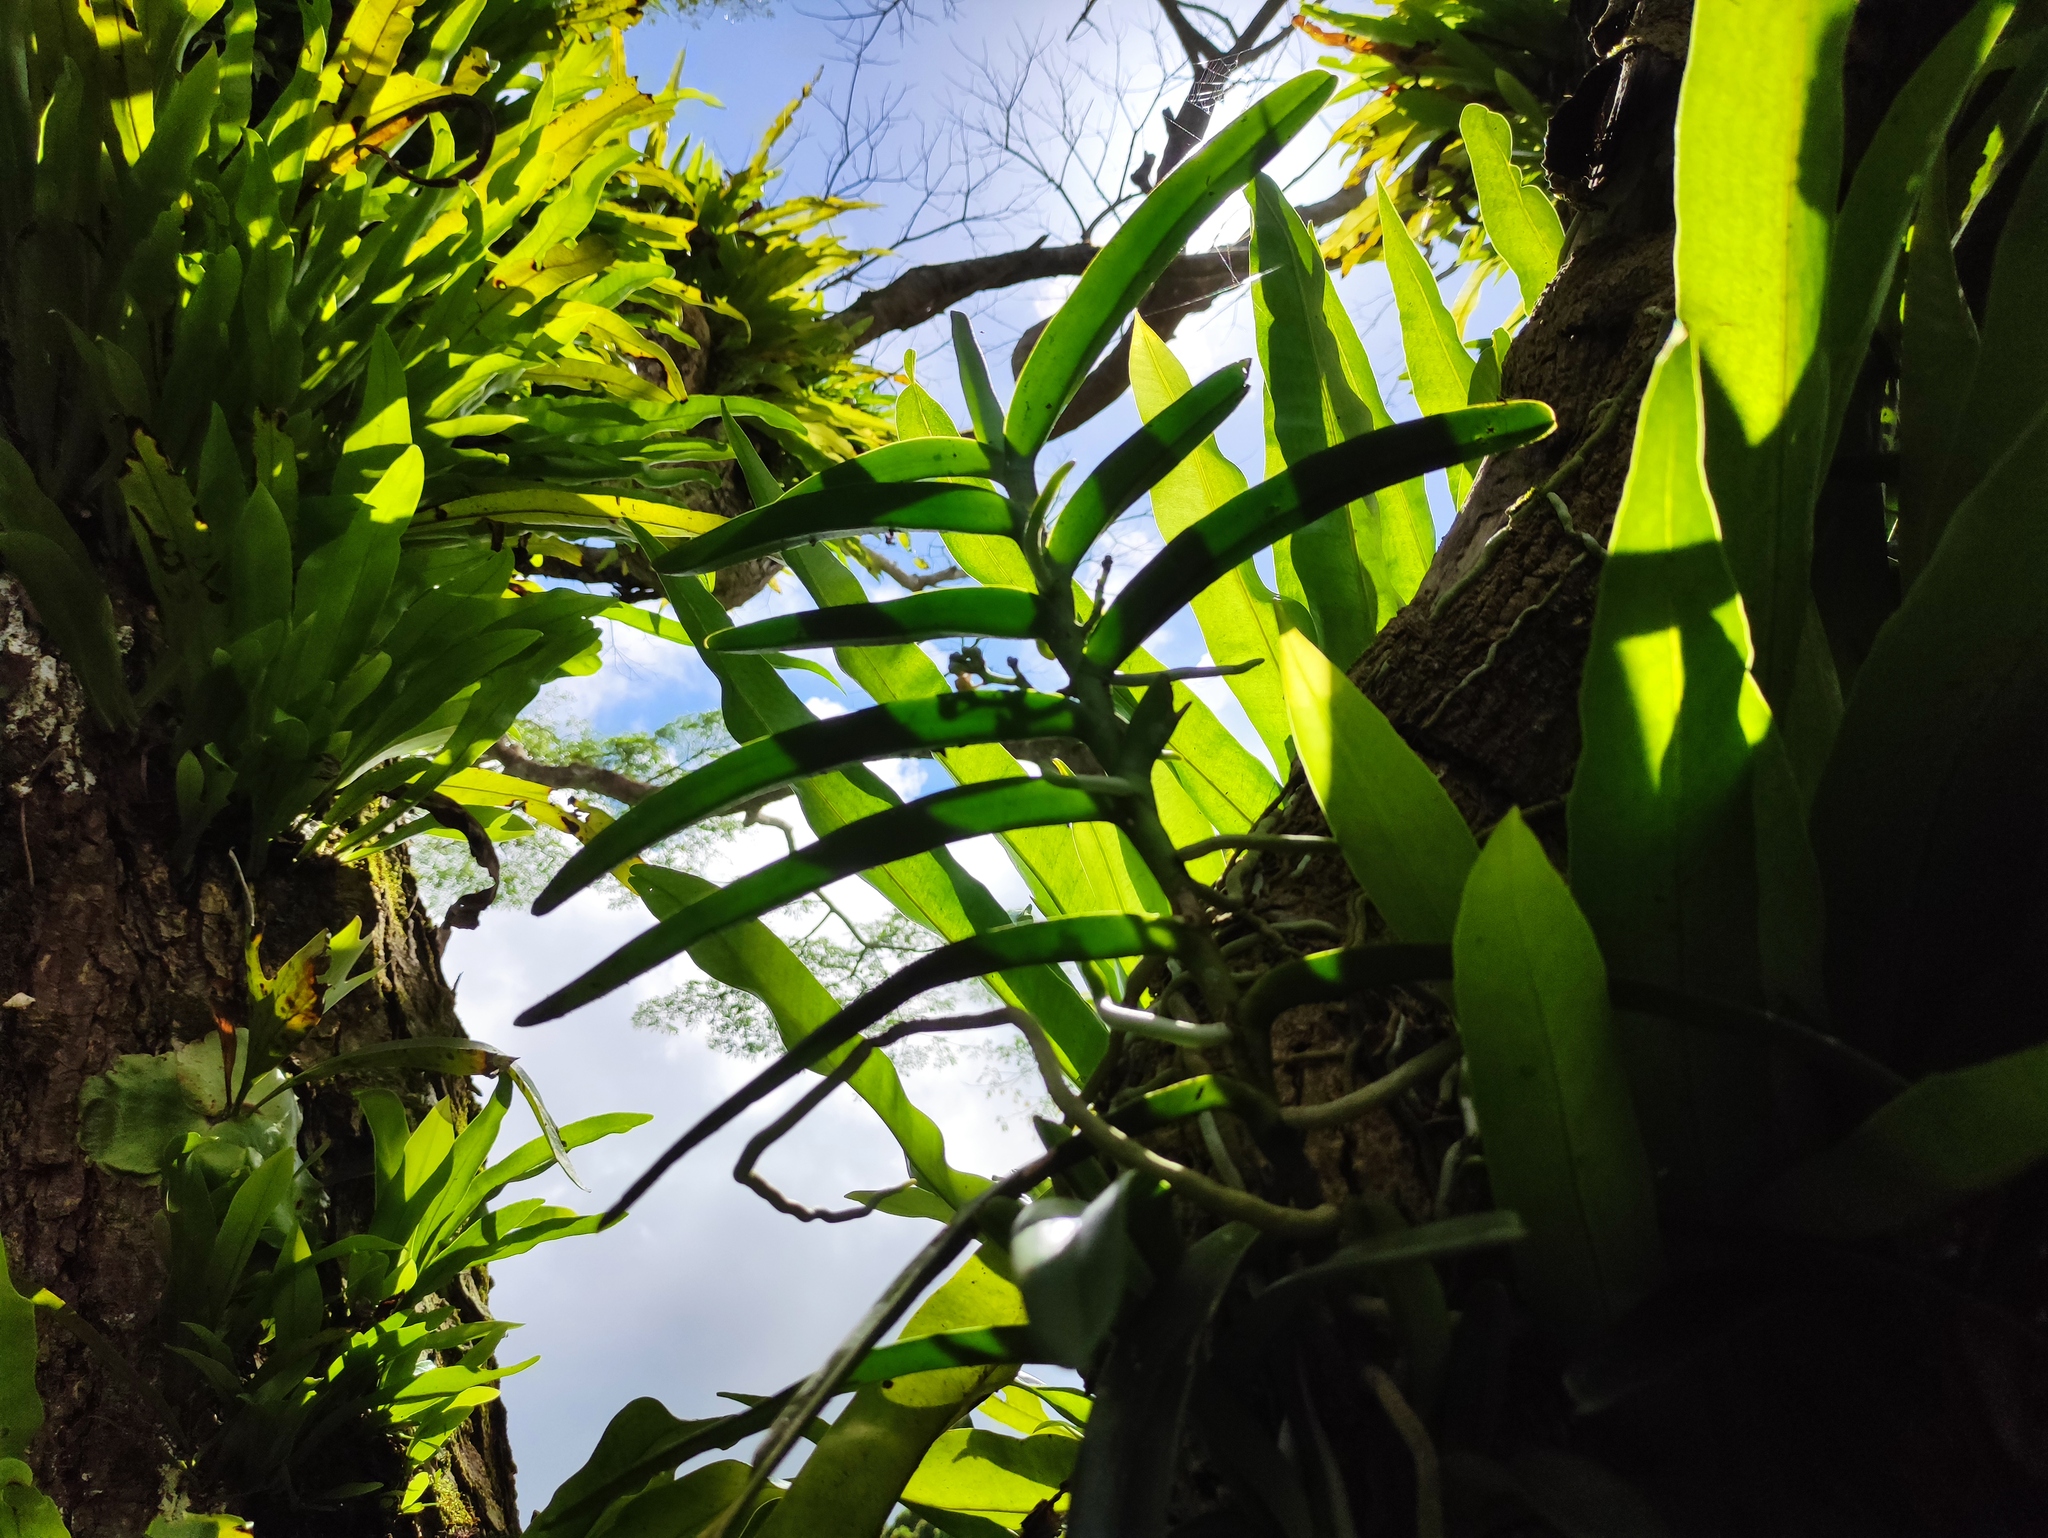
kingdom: Plantae
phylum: Tracheophyta
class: Liliopsida
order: Asparagales
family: Orchidaceae
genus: Acampe
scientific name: Acampe pachyglossa
